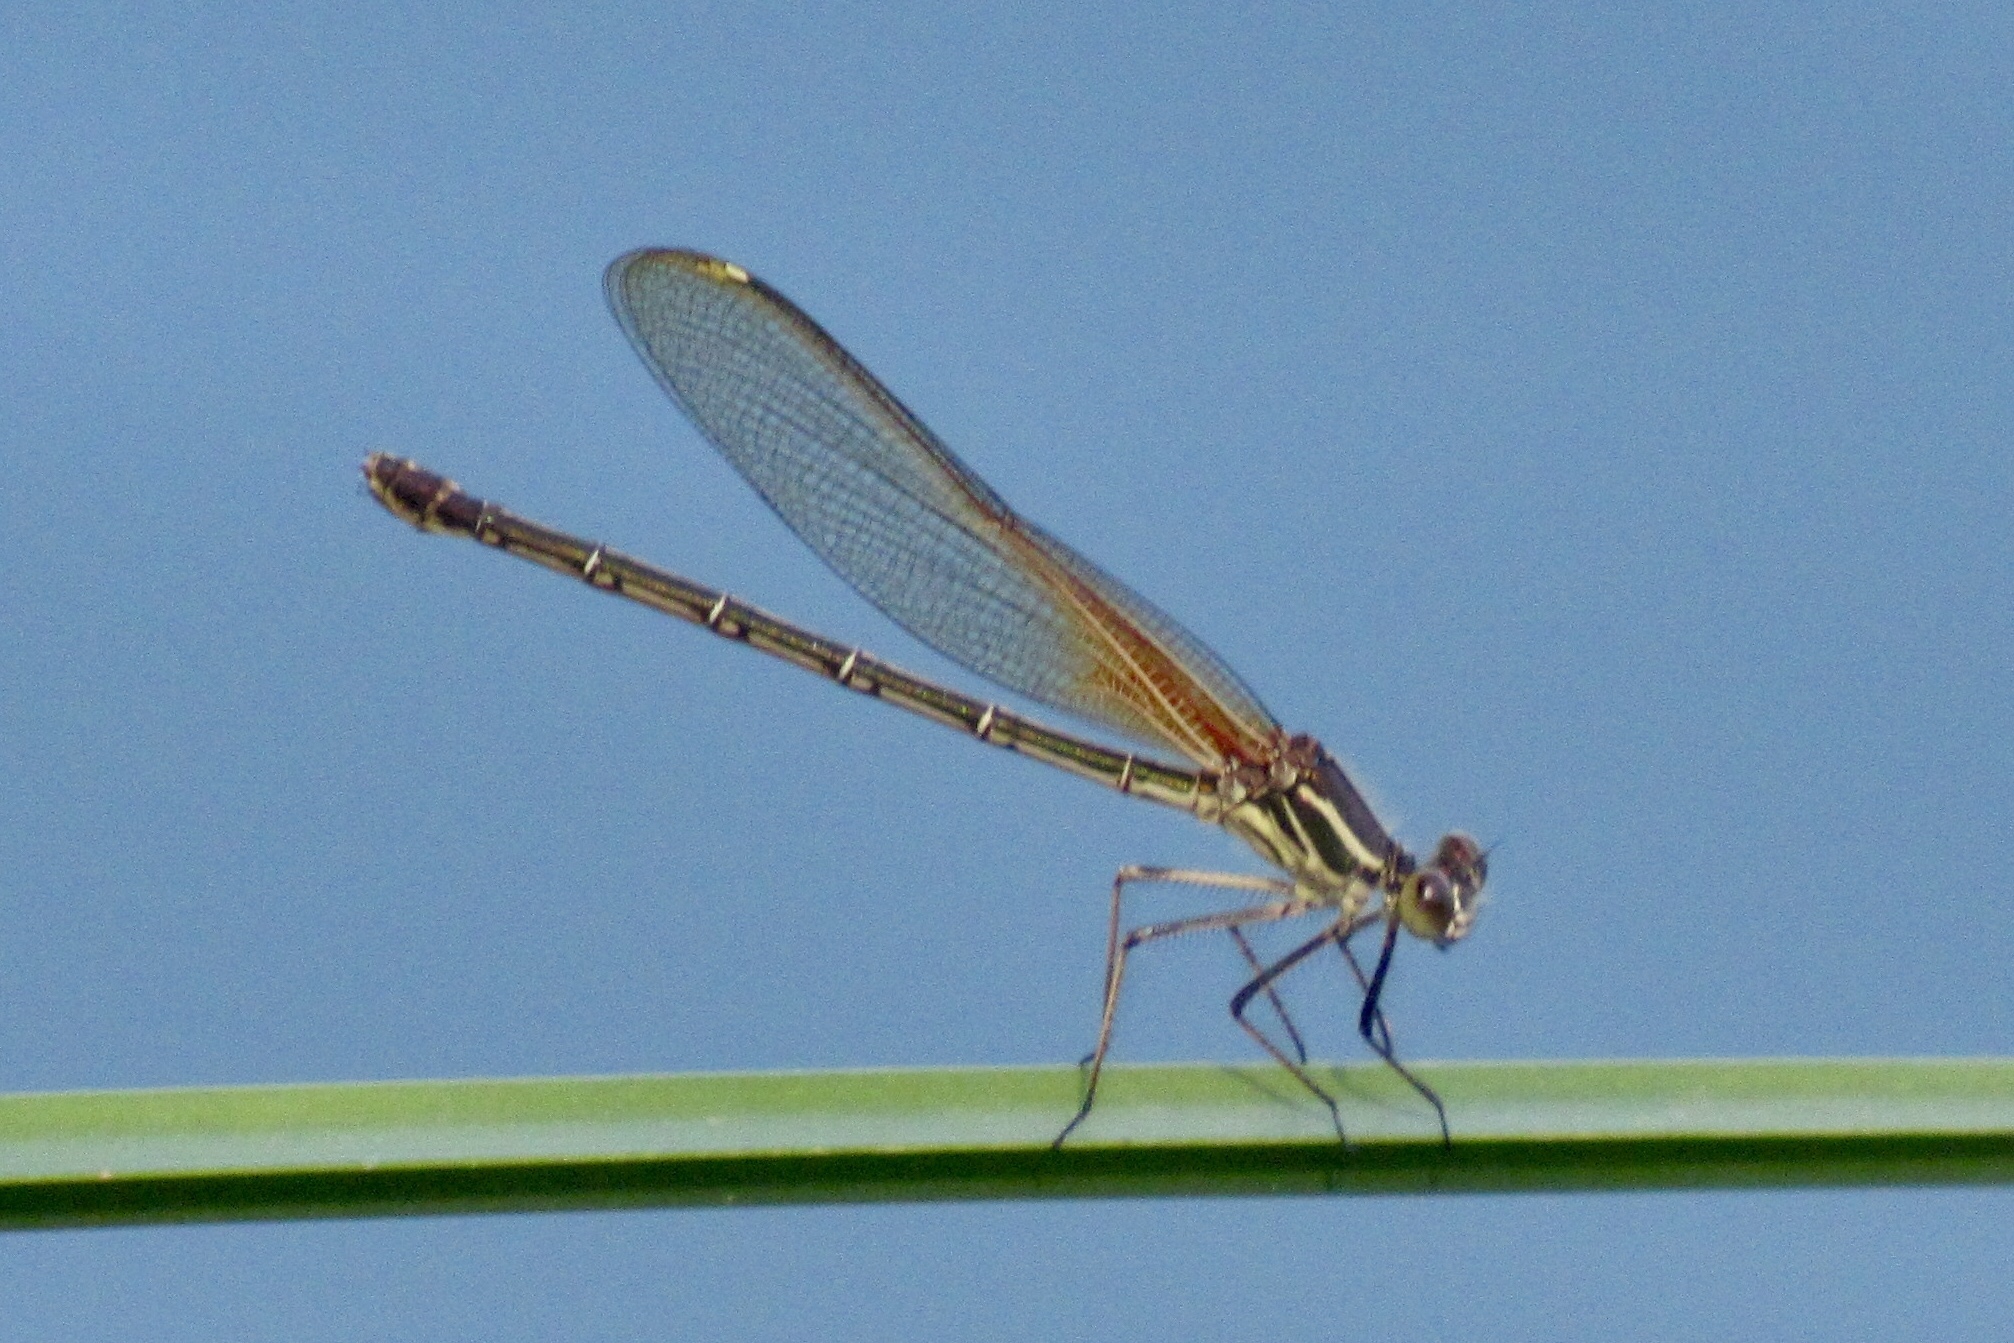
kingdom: Animalia
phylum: Arthropoda
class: Insecta
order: Odonata
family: Calopterygidae
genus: Hetaerina
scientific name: Hetaerina americana
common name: American rubyspot
